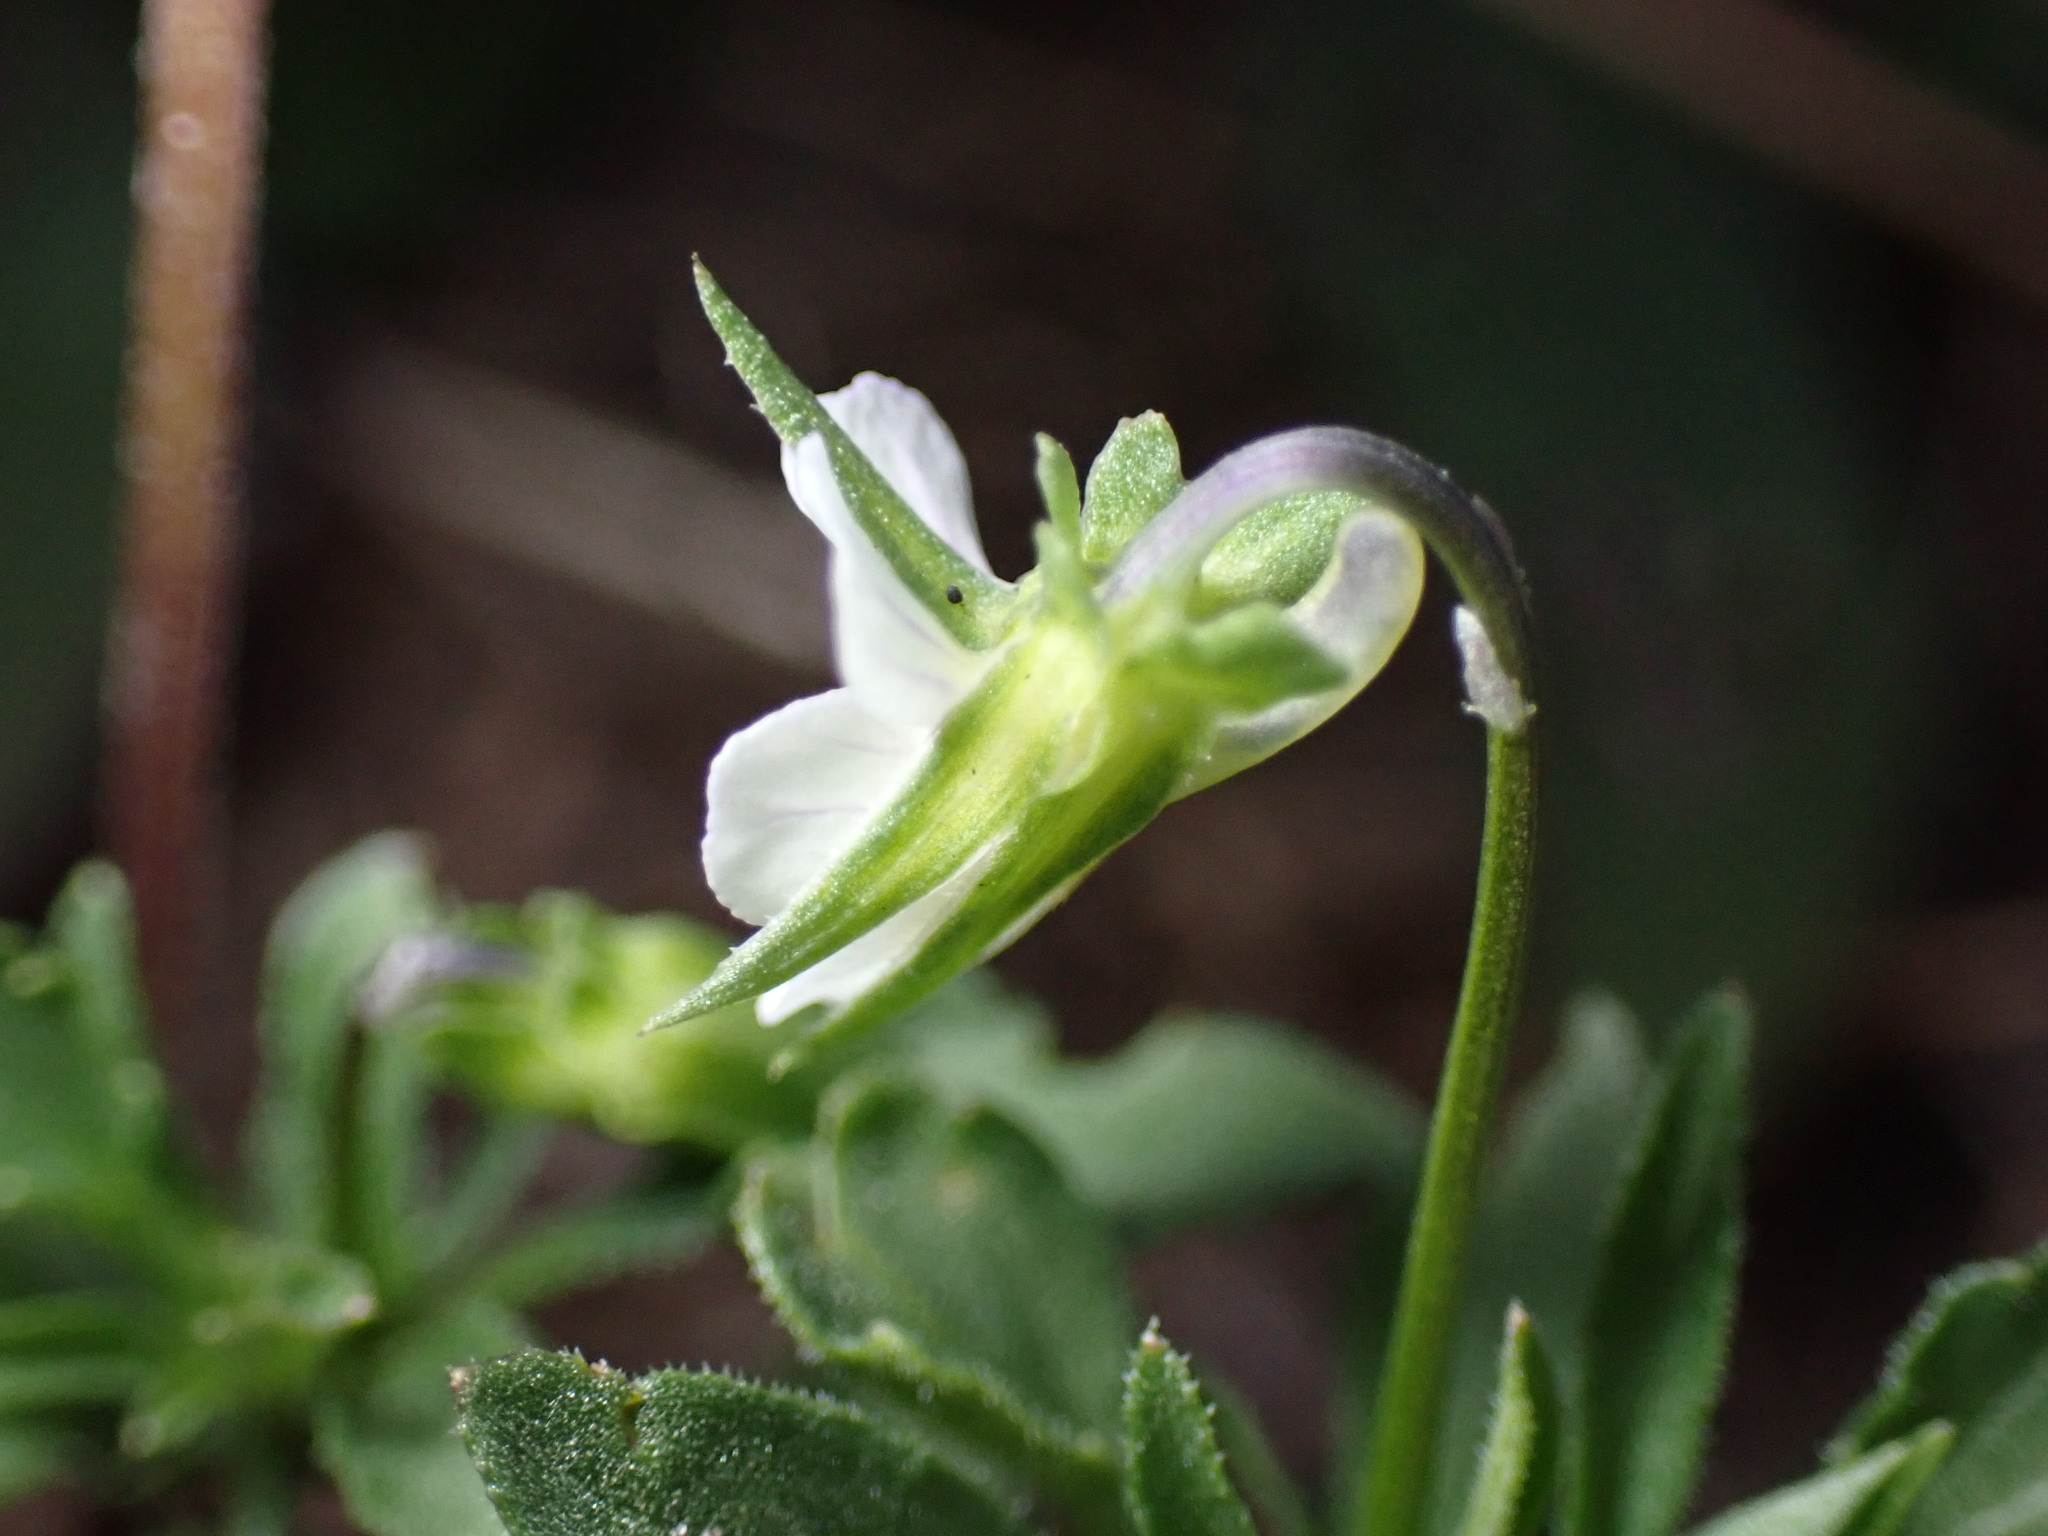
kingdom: Plantae
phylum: Tracheophyta
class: Magnoliopsida
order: Malpighiales
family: Violaceae
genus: Viola
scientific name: Viola arvensis
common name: Field pansy
